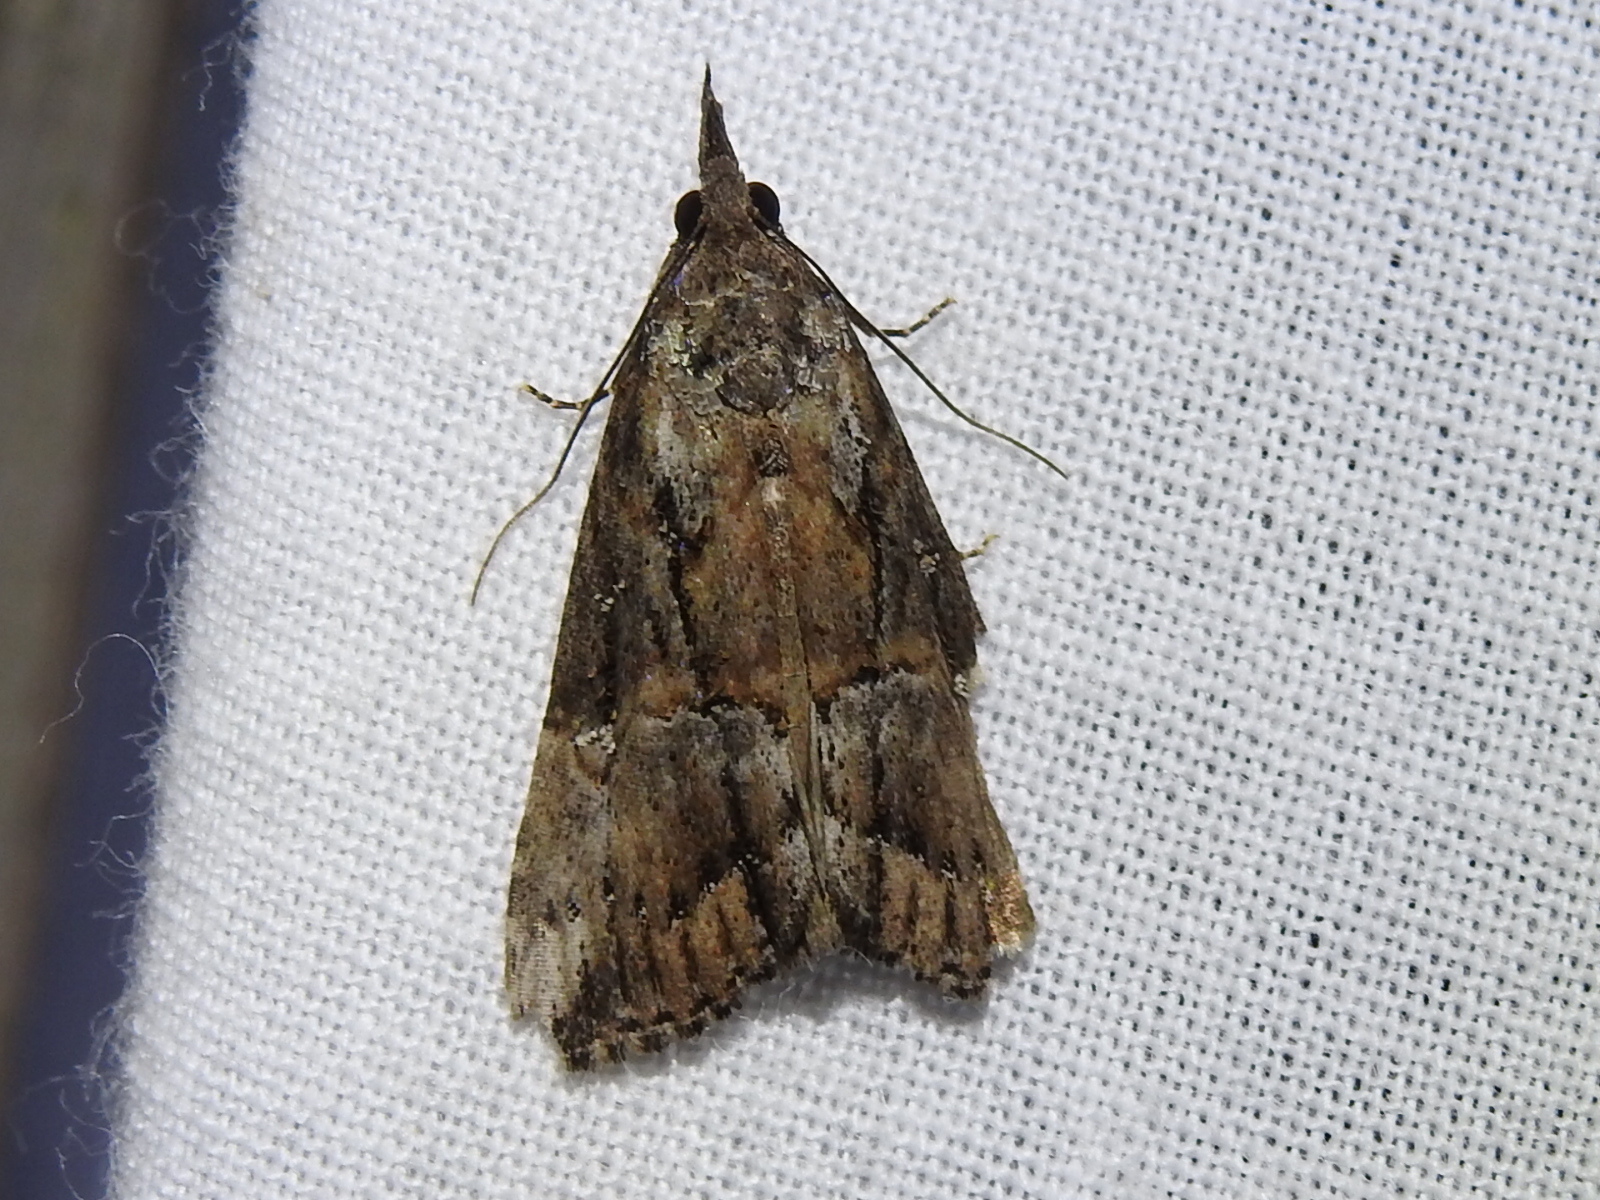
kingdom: Animalia
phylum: Arthropoda
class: Insecta
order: Lepidoptera
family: Erebidae
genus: Hypena
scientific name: Hypena scabra
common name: Green cloverworm
